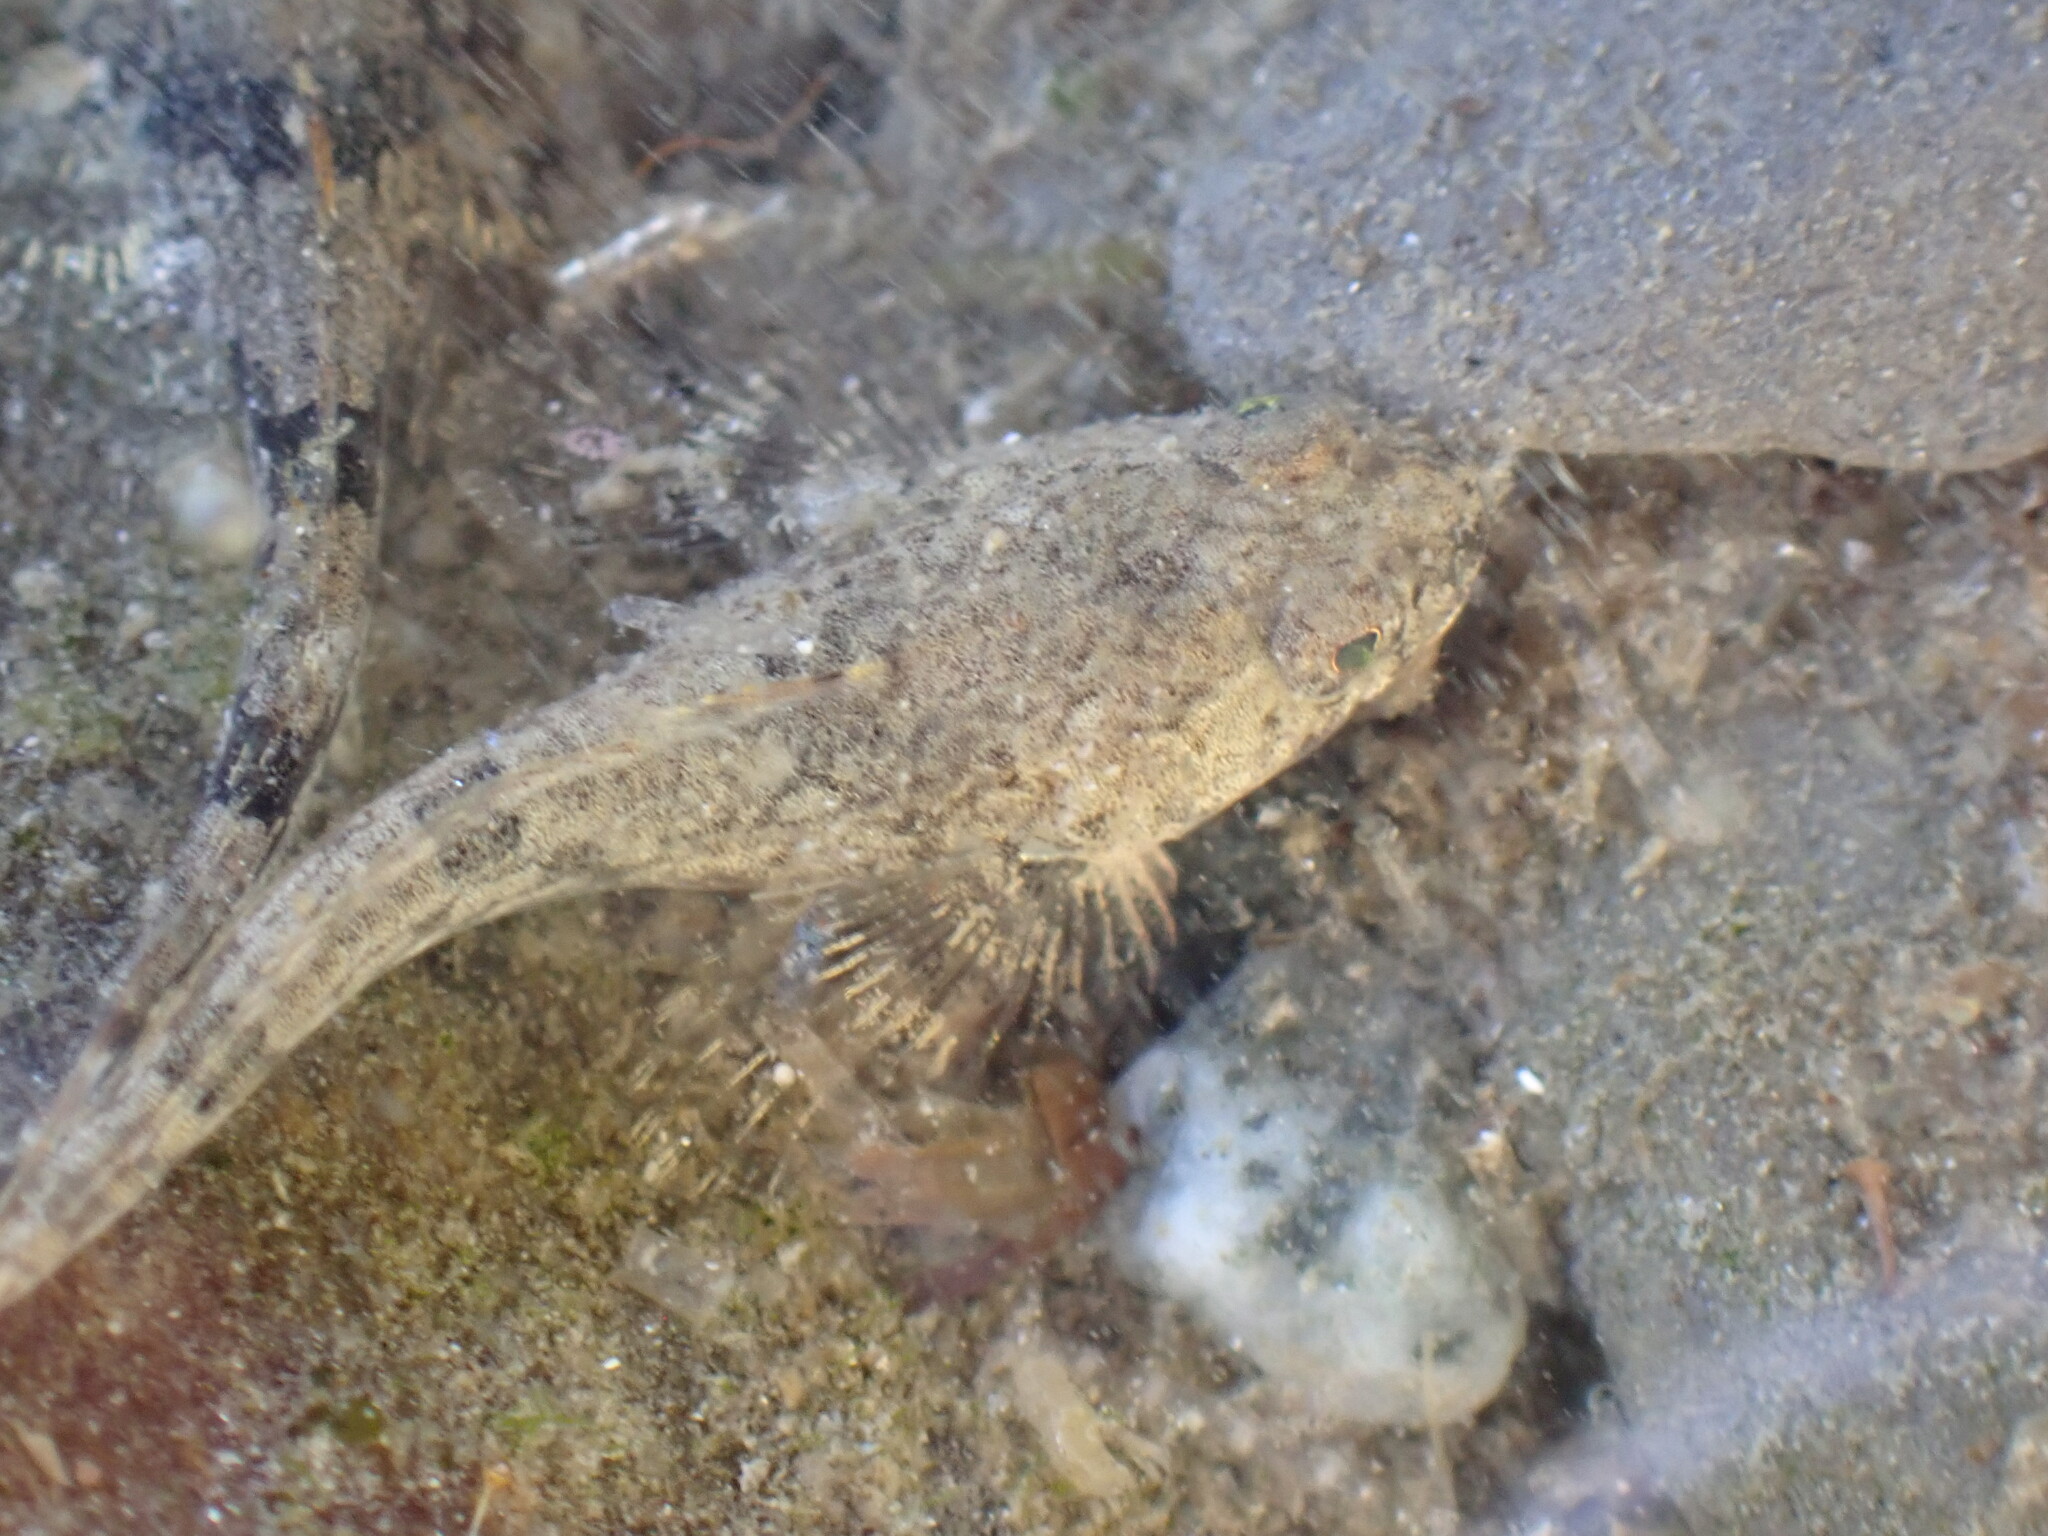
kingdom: Animalia
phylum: Chordata
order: Scorpaeniformes
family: Cottidae
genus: Leptocottus
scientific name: Leptocottus armatus
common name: Pacific staghorn sculpin
